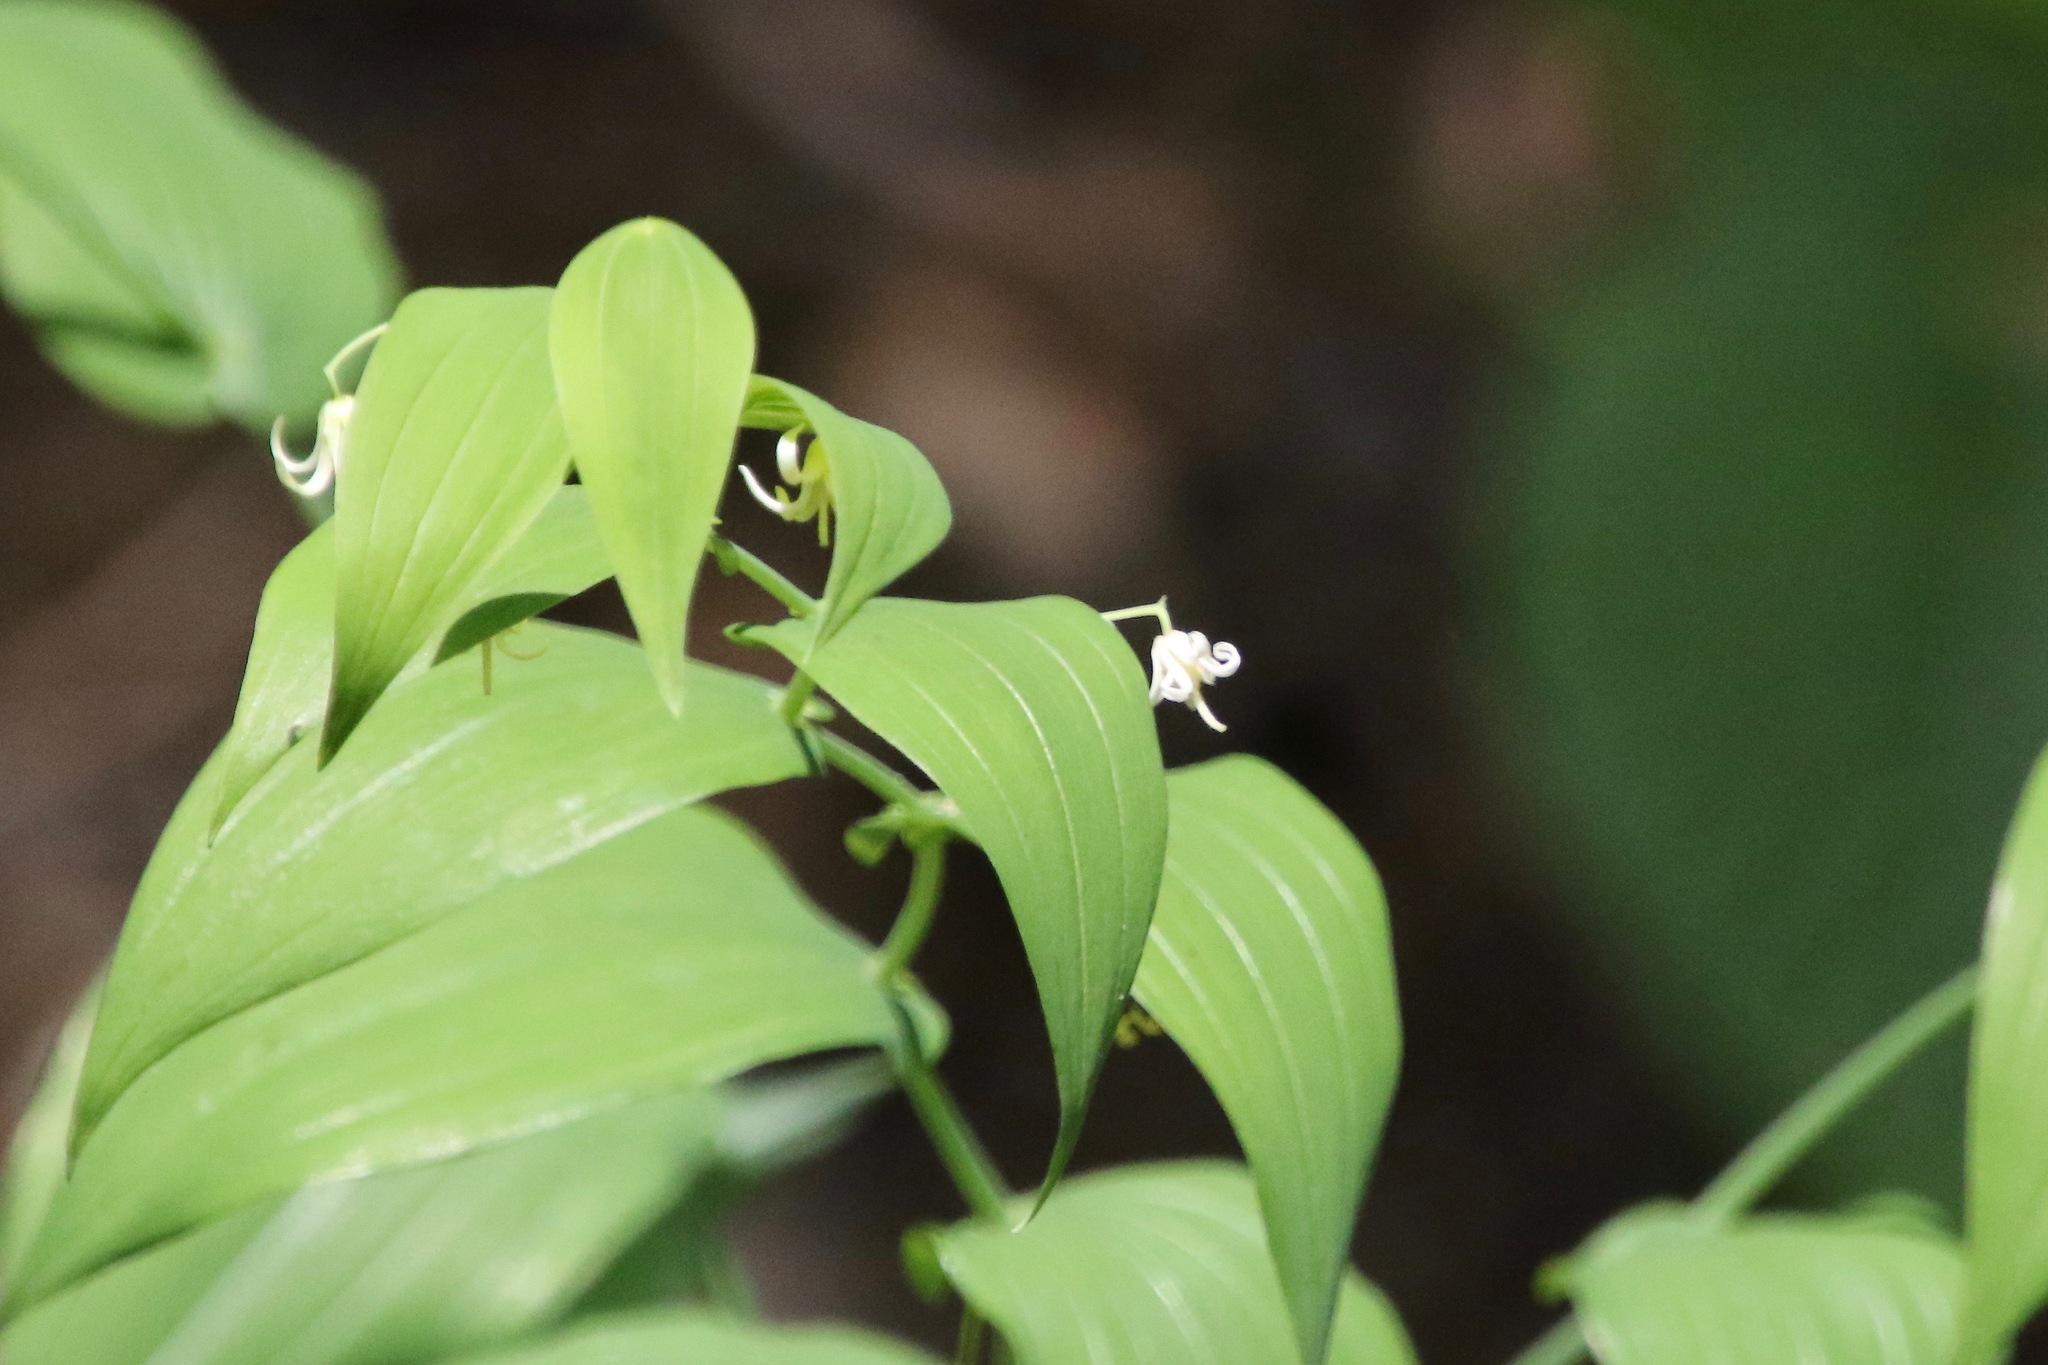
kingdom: Plantae
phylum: Tracheophyta
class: Liliopsida
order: Liliales
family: Liliaceae
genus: Streptopus
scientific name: Streptopus amplexifolius
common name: Clasp twisted stalk
